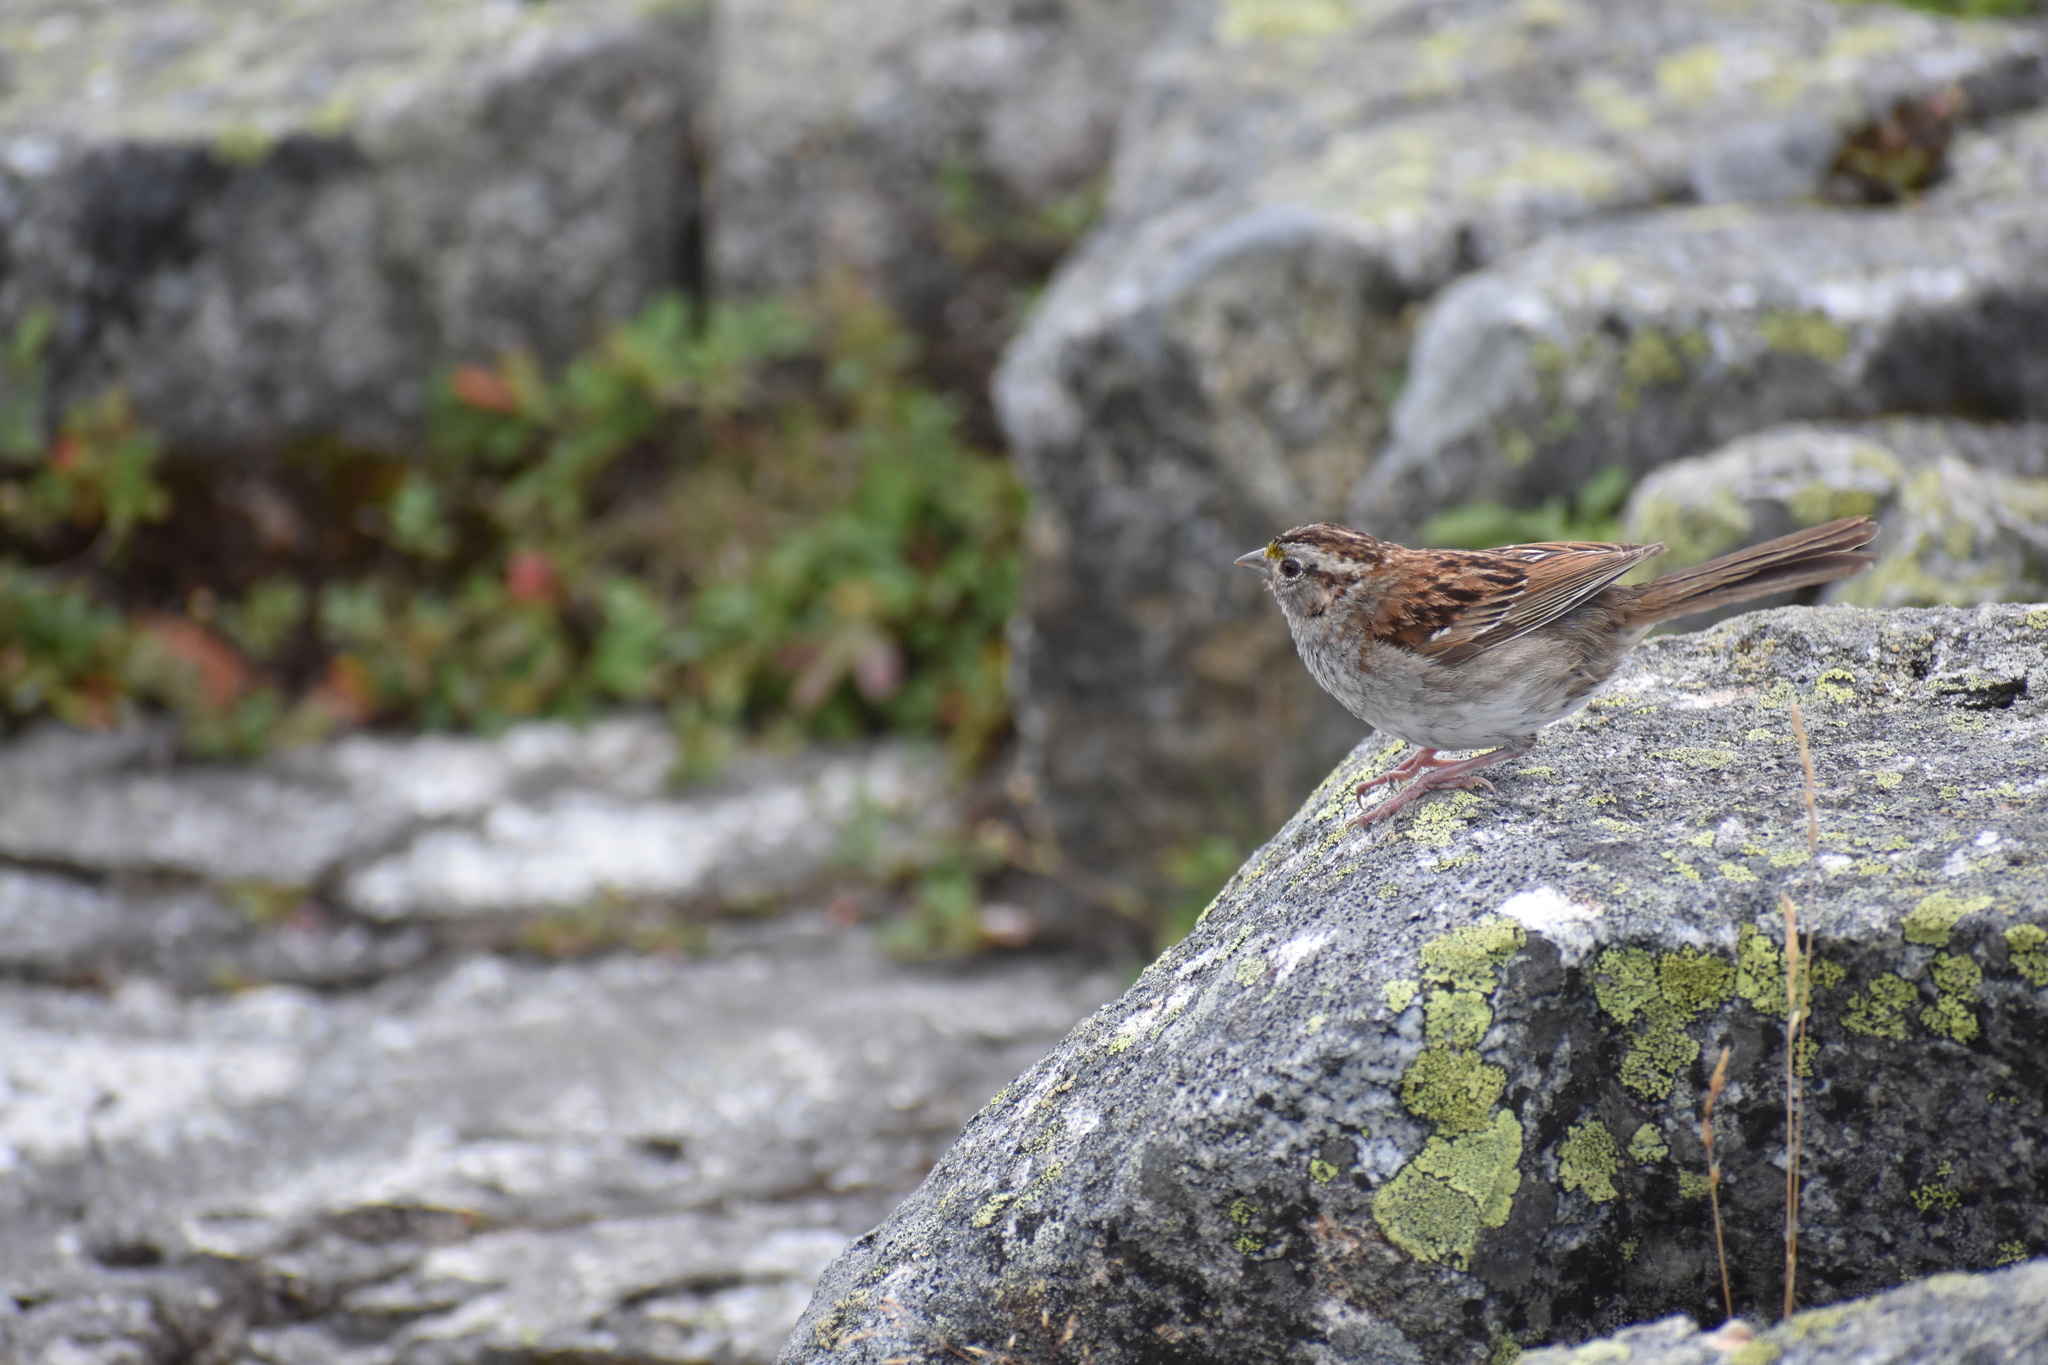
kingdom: Animalia
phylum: Chordata
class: Aves
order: Passeriformes
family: Passerellidae
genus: Zonotrichia
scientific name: Zonotrichia albicollis
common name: White-throated sparrow
